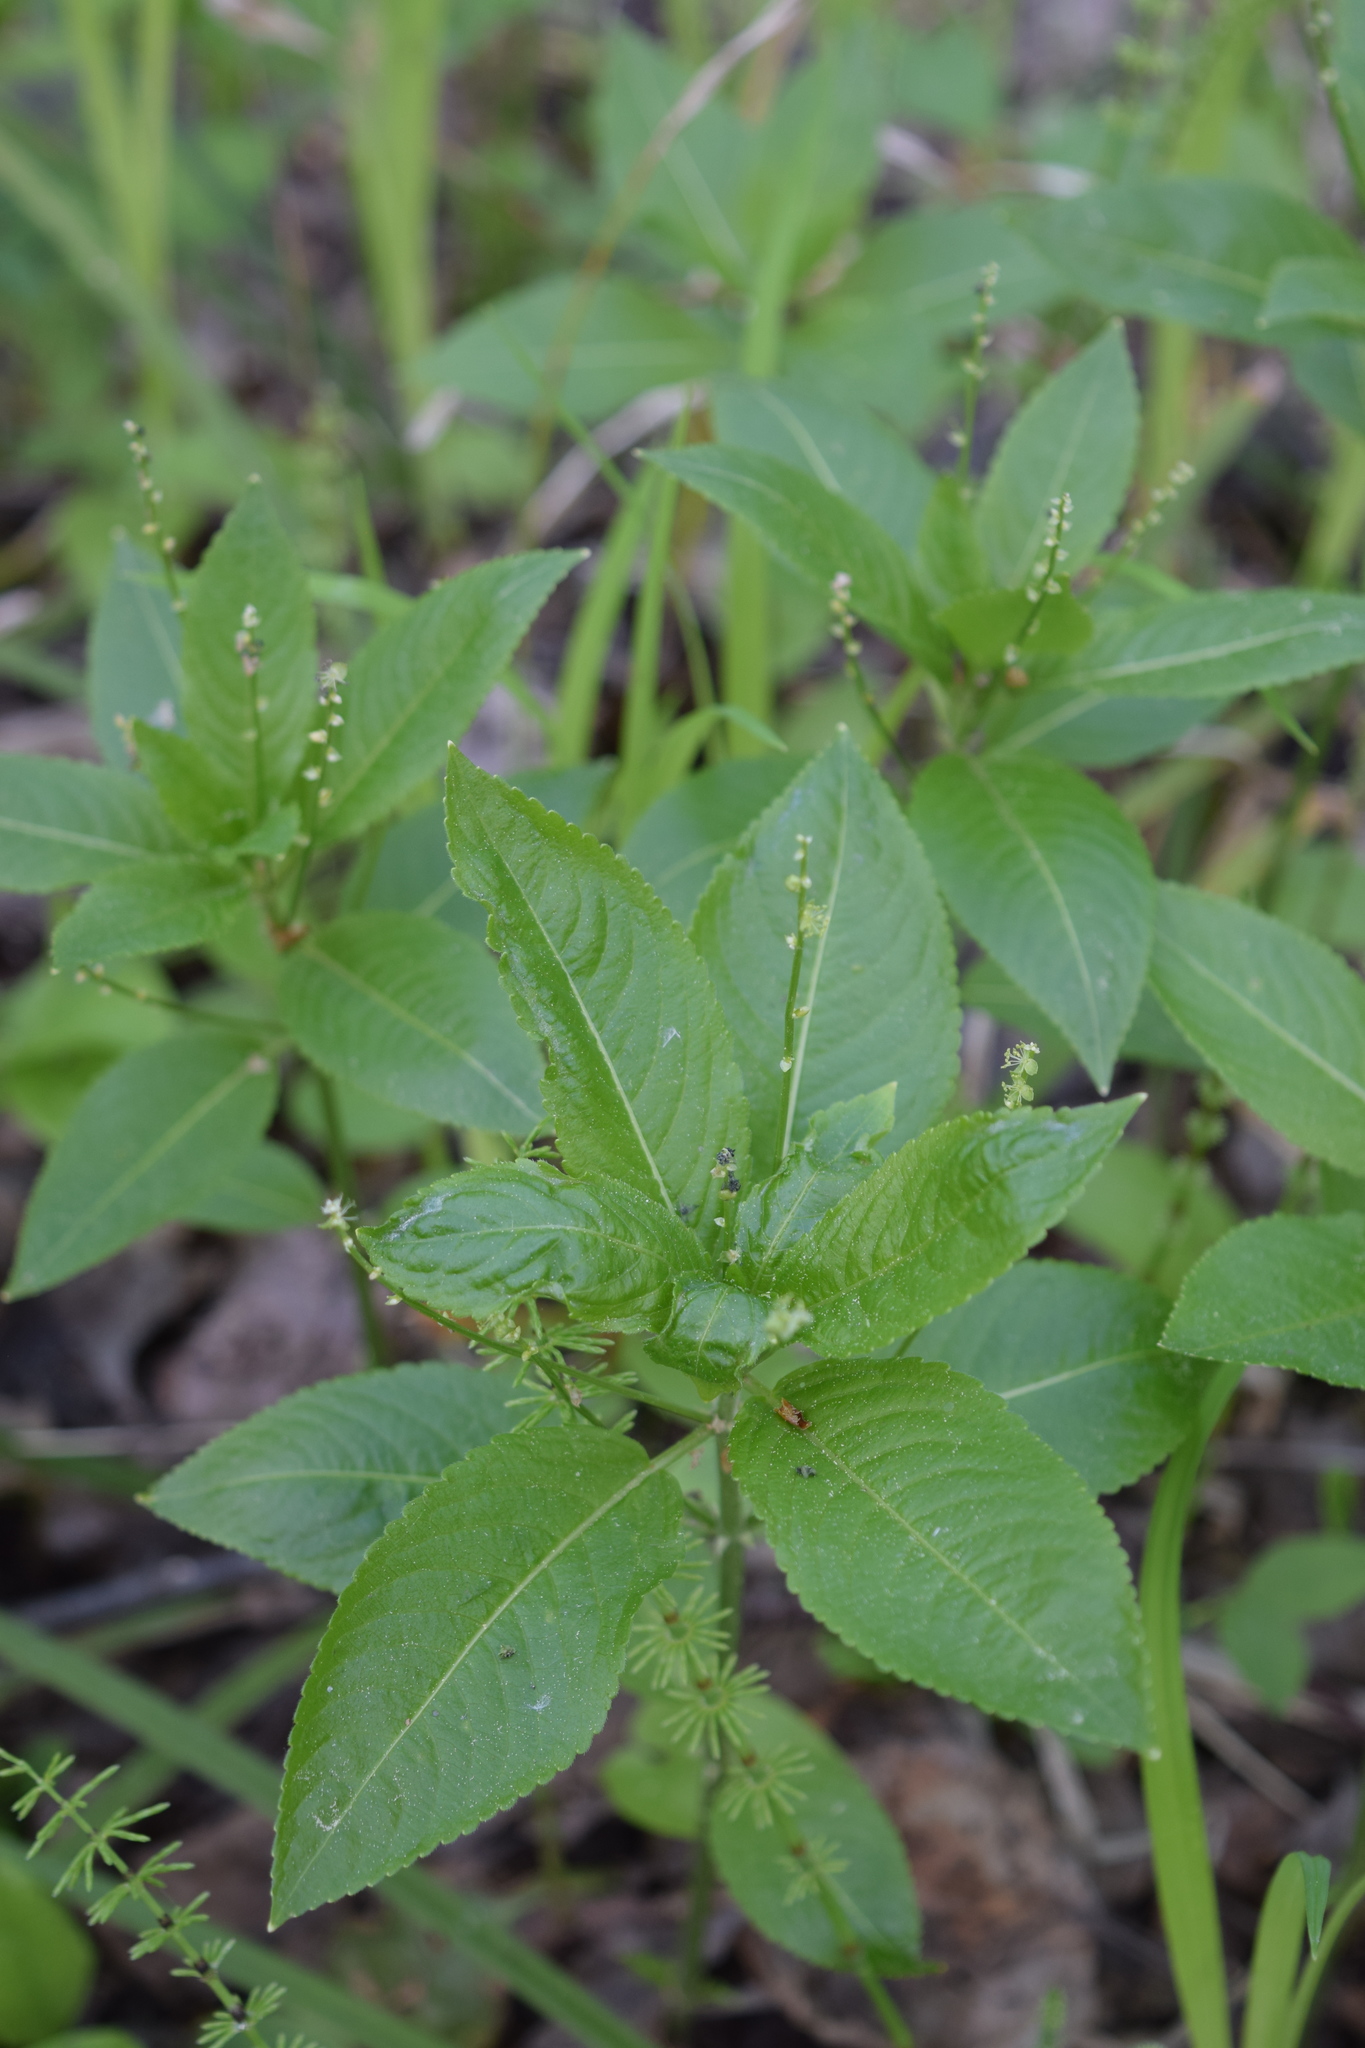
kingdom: Plantae
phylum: Tracheophyta
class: Magnoliopsida
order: Malpighiales
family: Euphorbiaceae
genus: Mercurialis
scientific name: Mercurialis perennis
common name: Dog mercury
